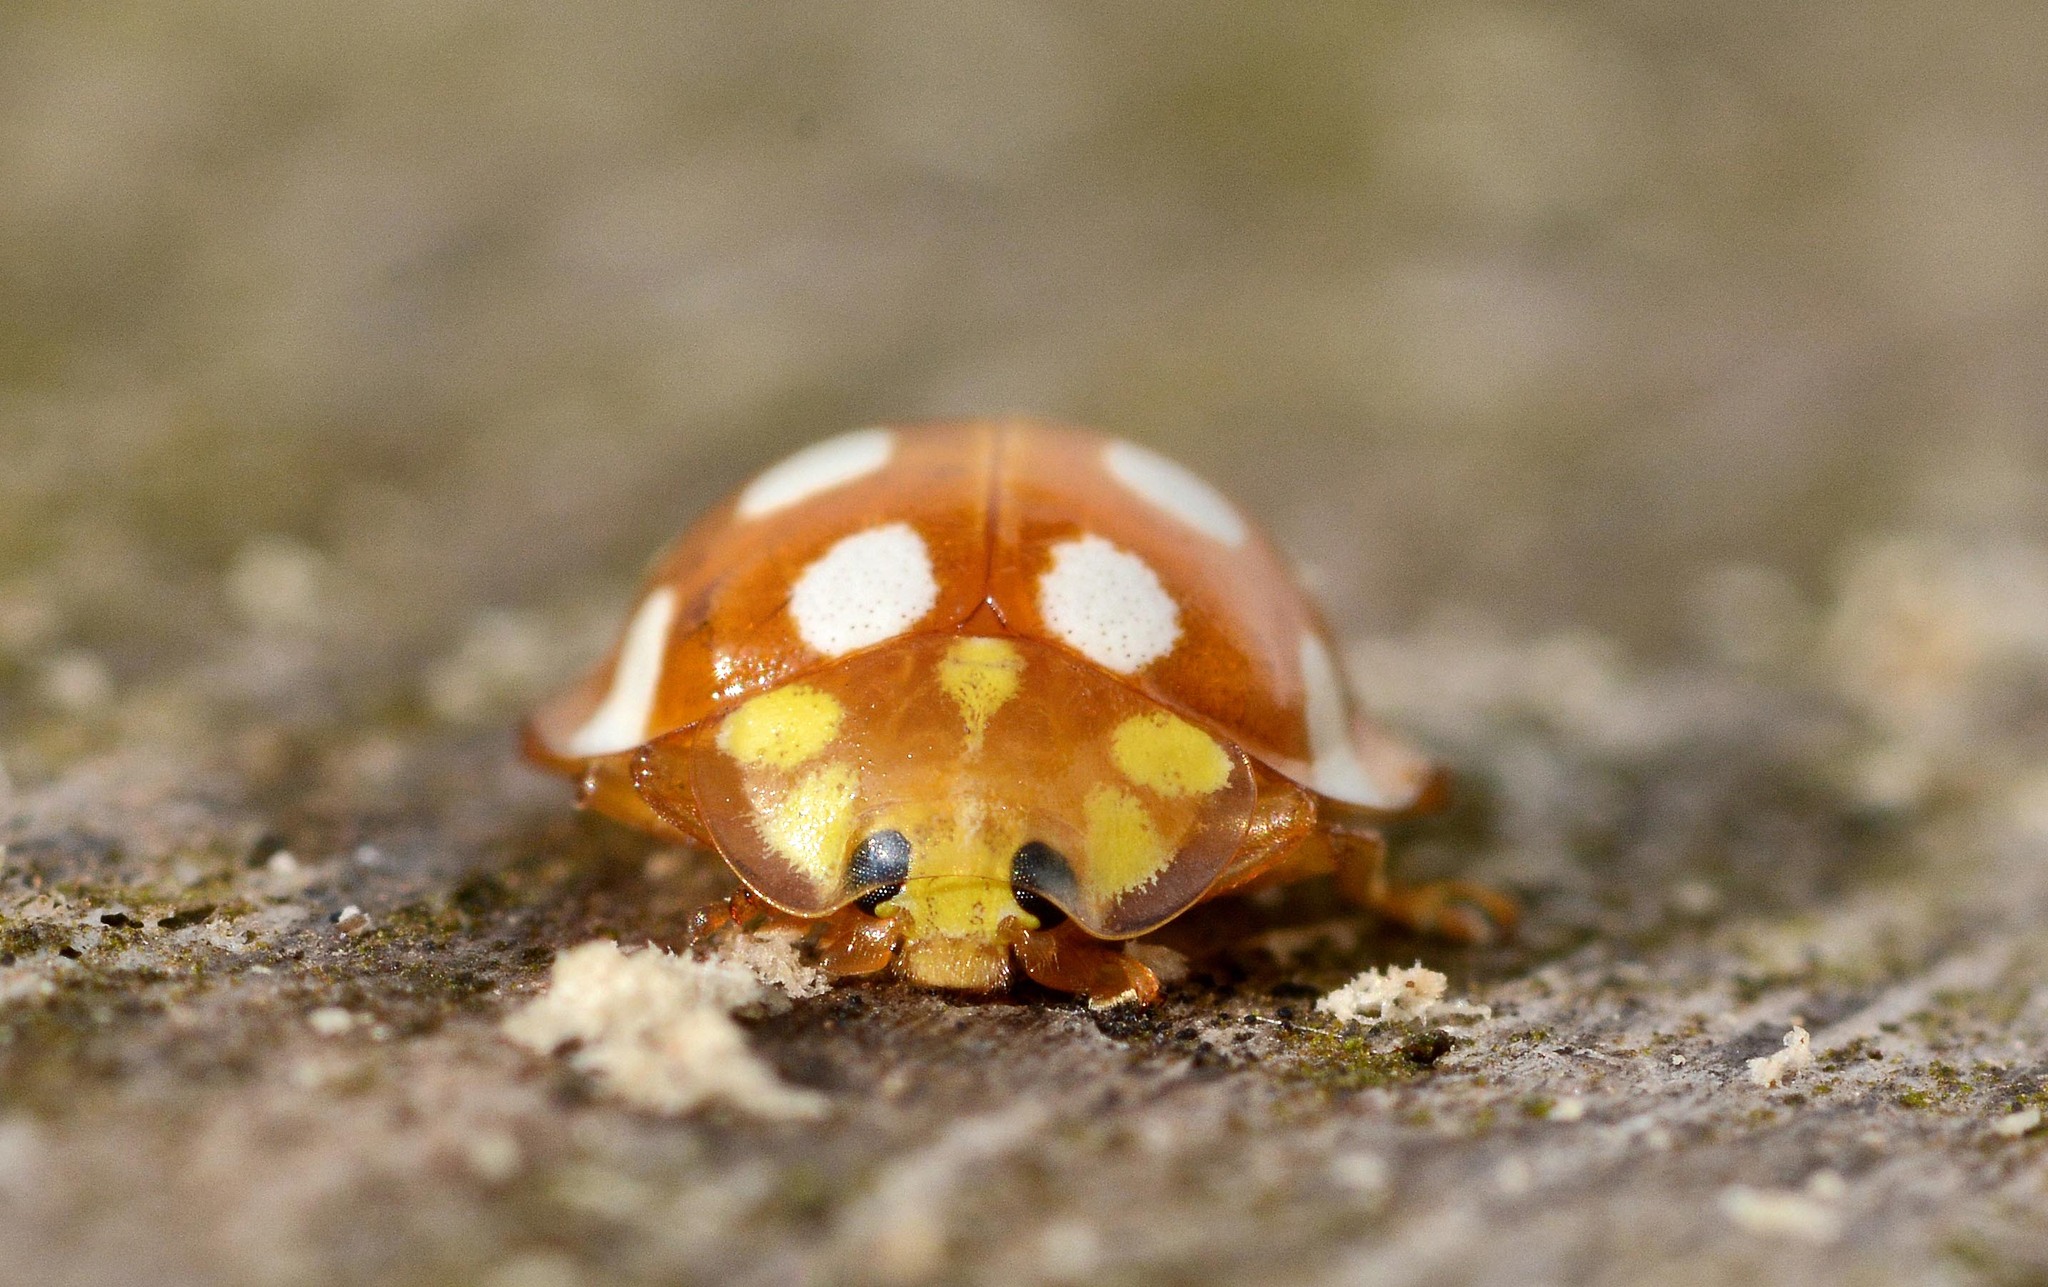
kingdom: Animalia
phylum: Arthropoda
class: Insecta
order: Coleoptera
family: Coccinellidae
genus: Halyzia
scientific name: Halyzia sedecimguttata
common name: Orange ladybird
